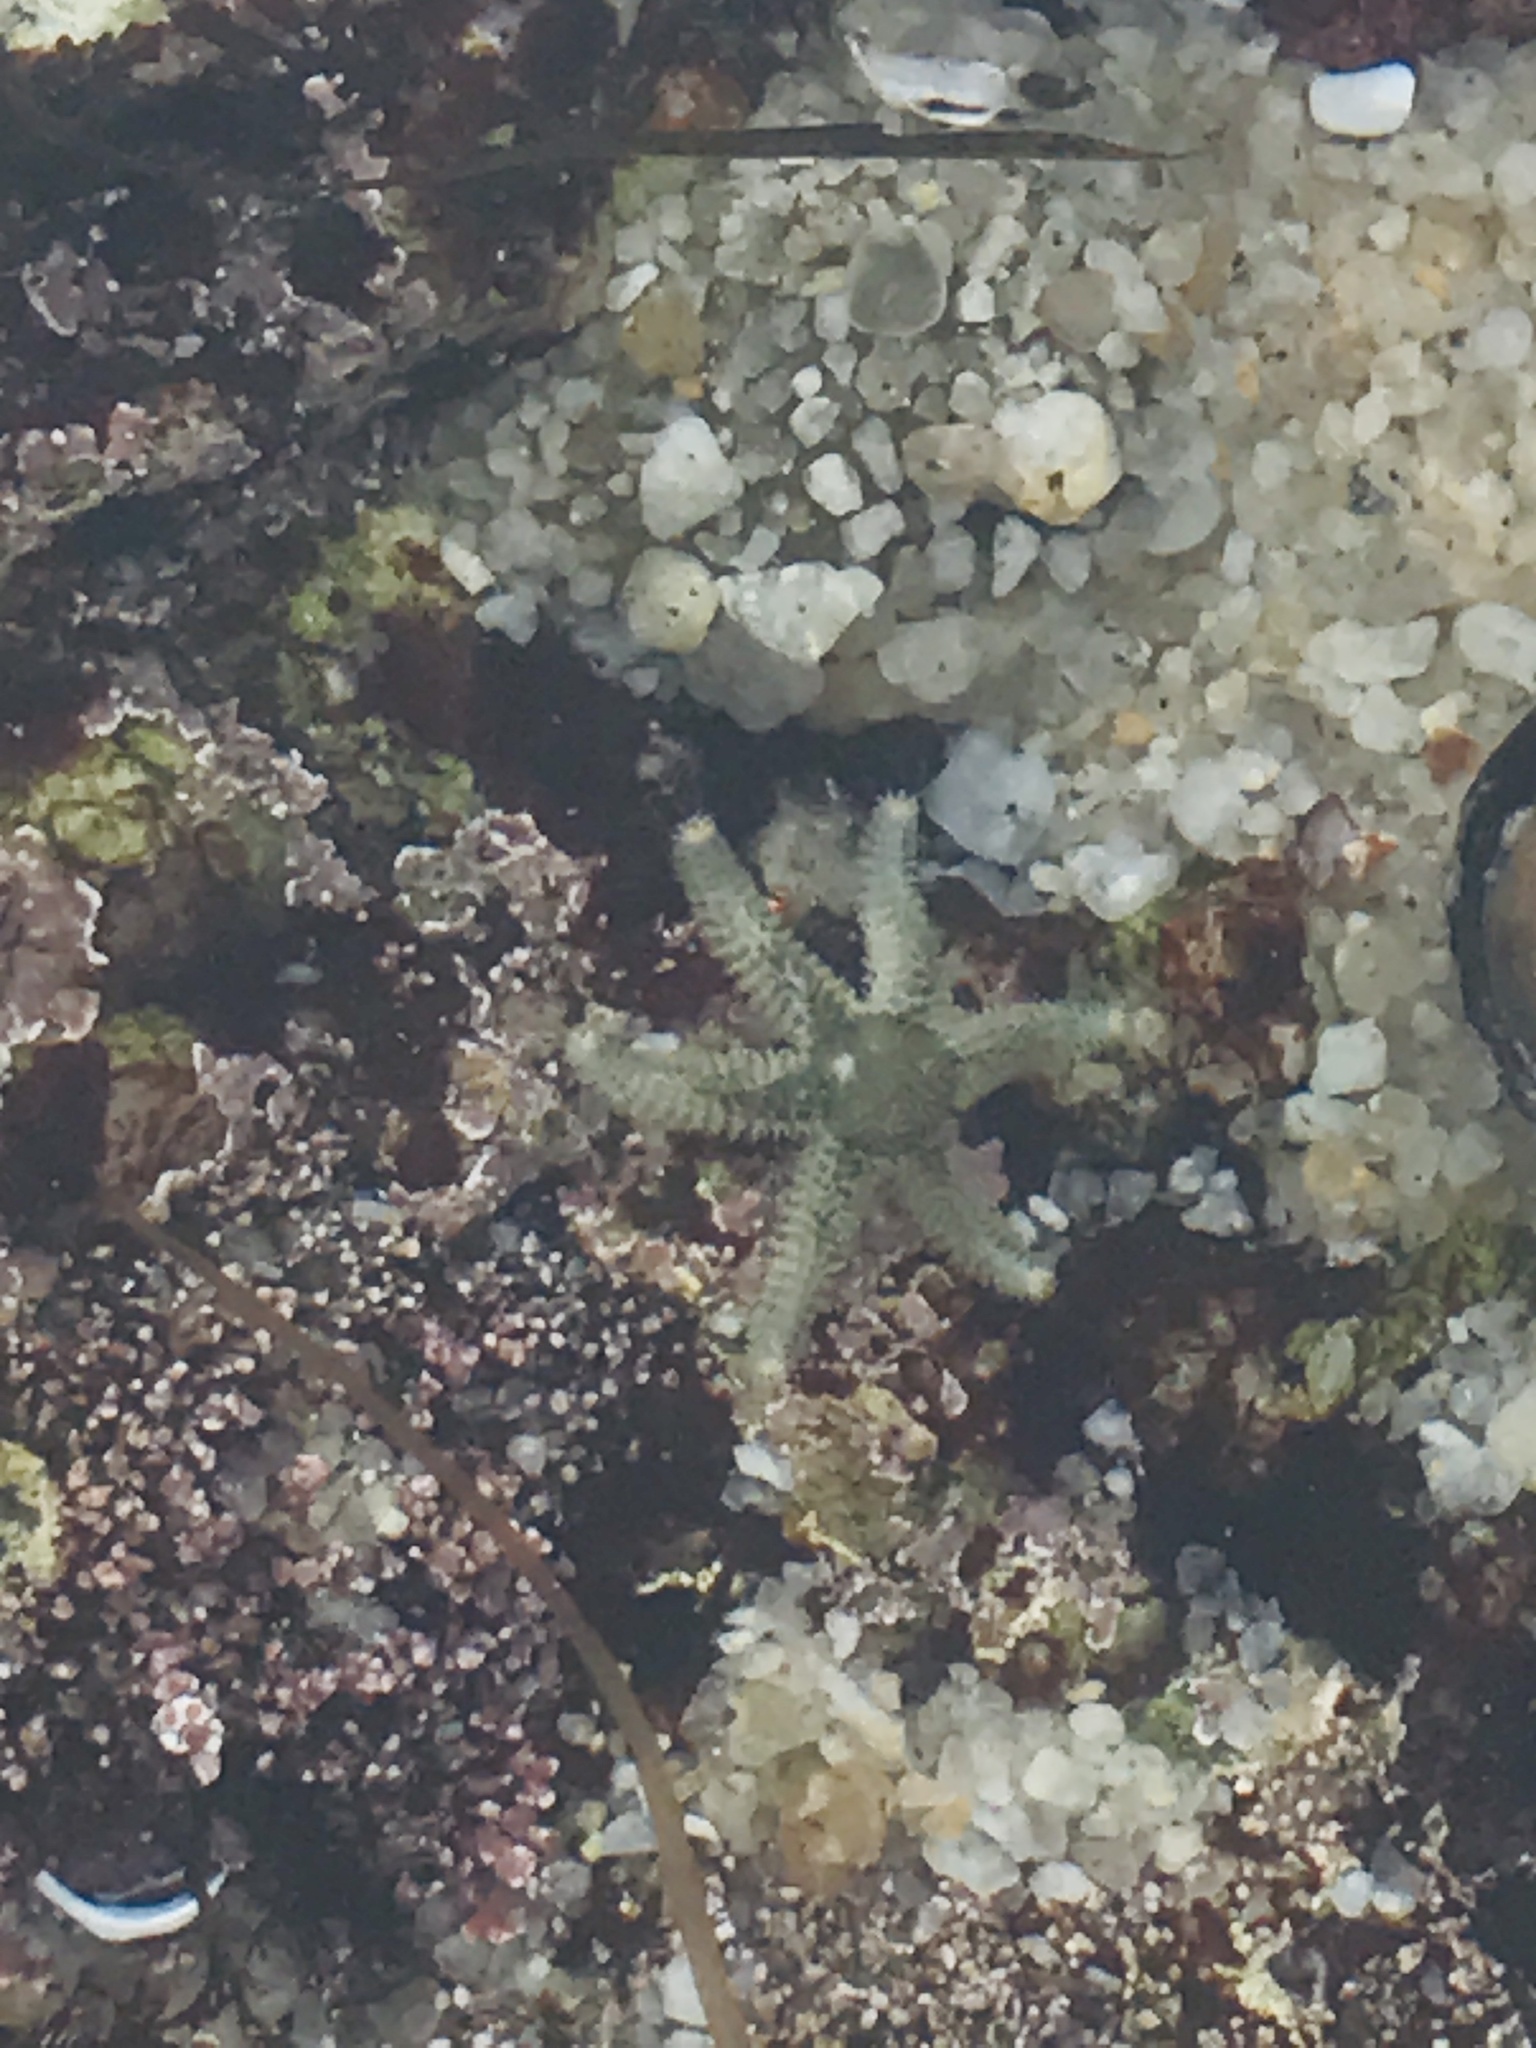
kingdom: Animalia
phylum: Echinodermata
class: Asteroidea
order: Forcipulatida
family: Asteriidae
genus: Leptasterias
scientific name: Leptasterias hexactis
